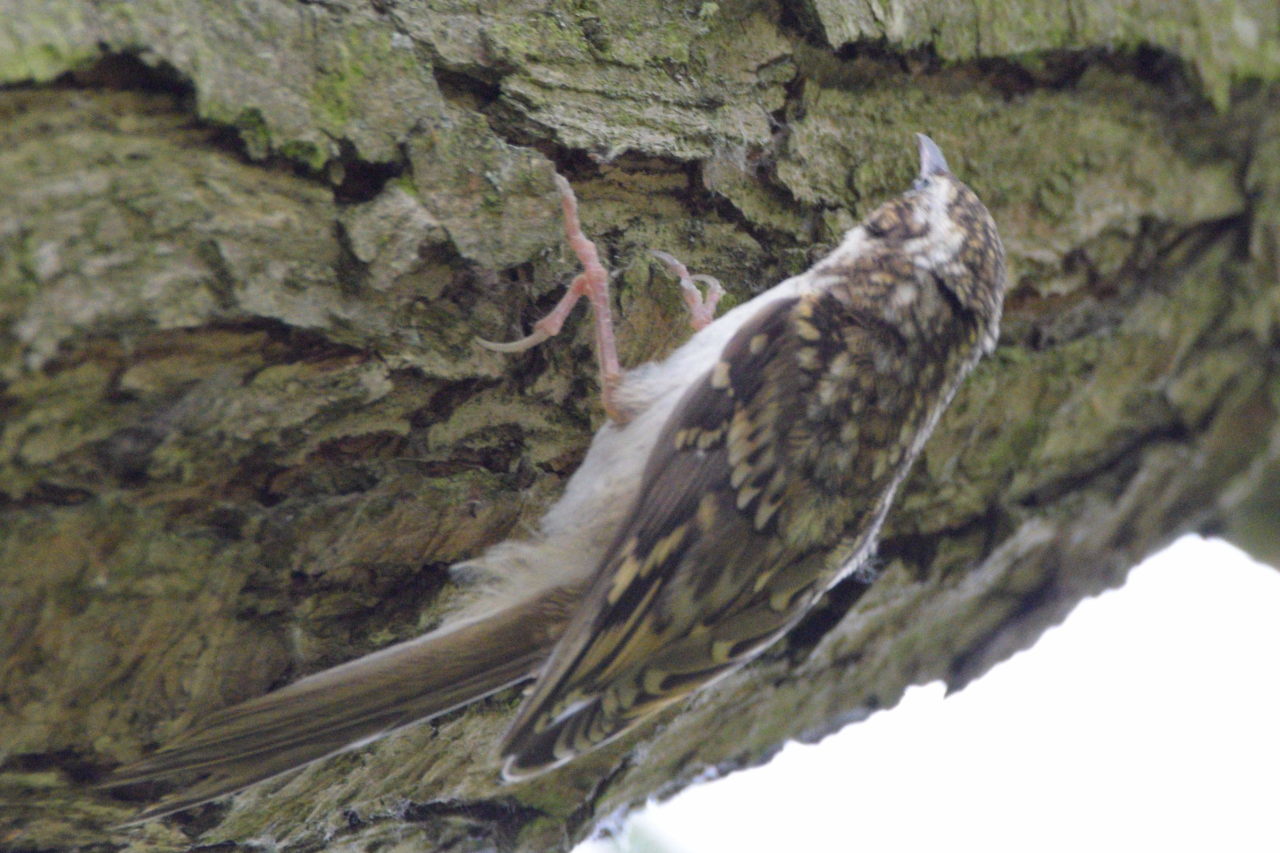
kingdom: Animalia
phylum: Chordata
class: Aves
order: Passeriformes
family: Certhiidae
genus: Certhia
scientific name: Certhia brachydactyla
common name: Short-toed treecreeper
